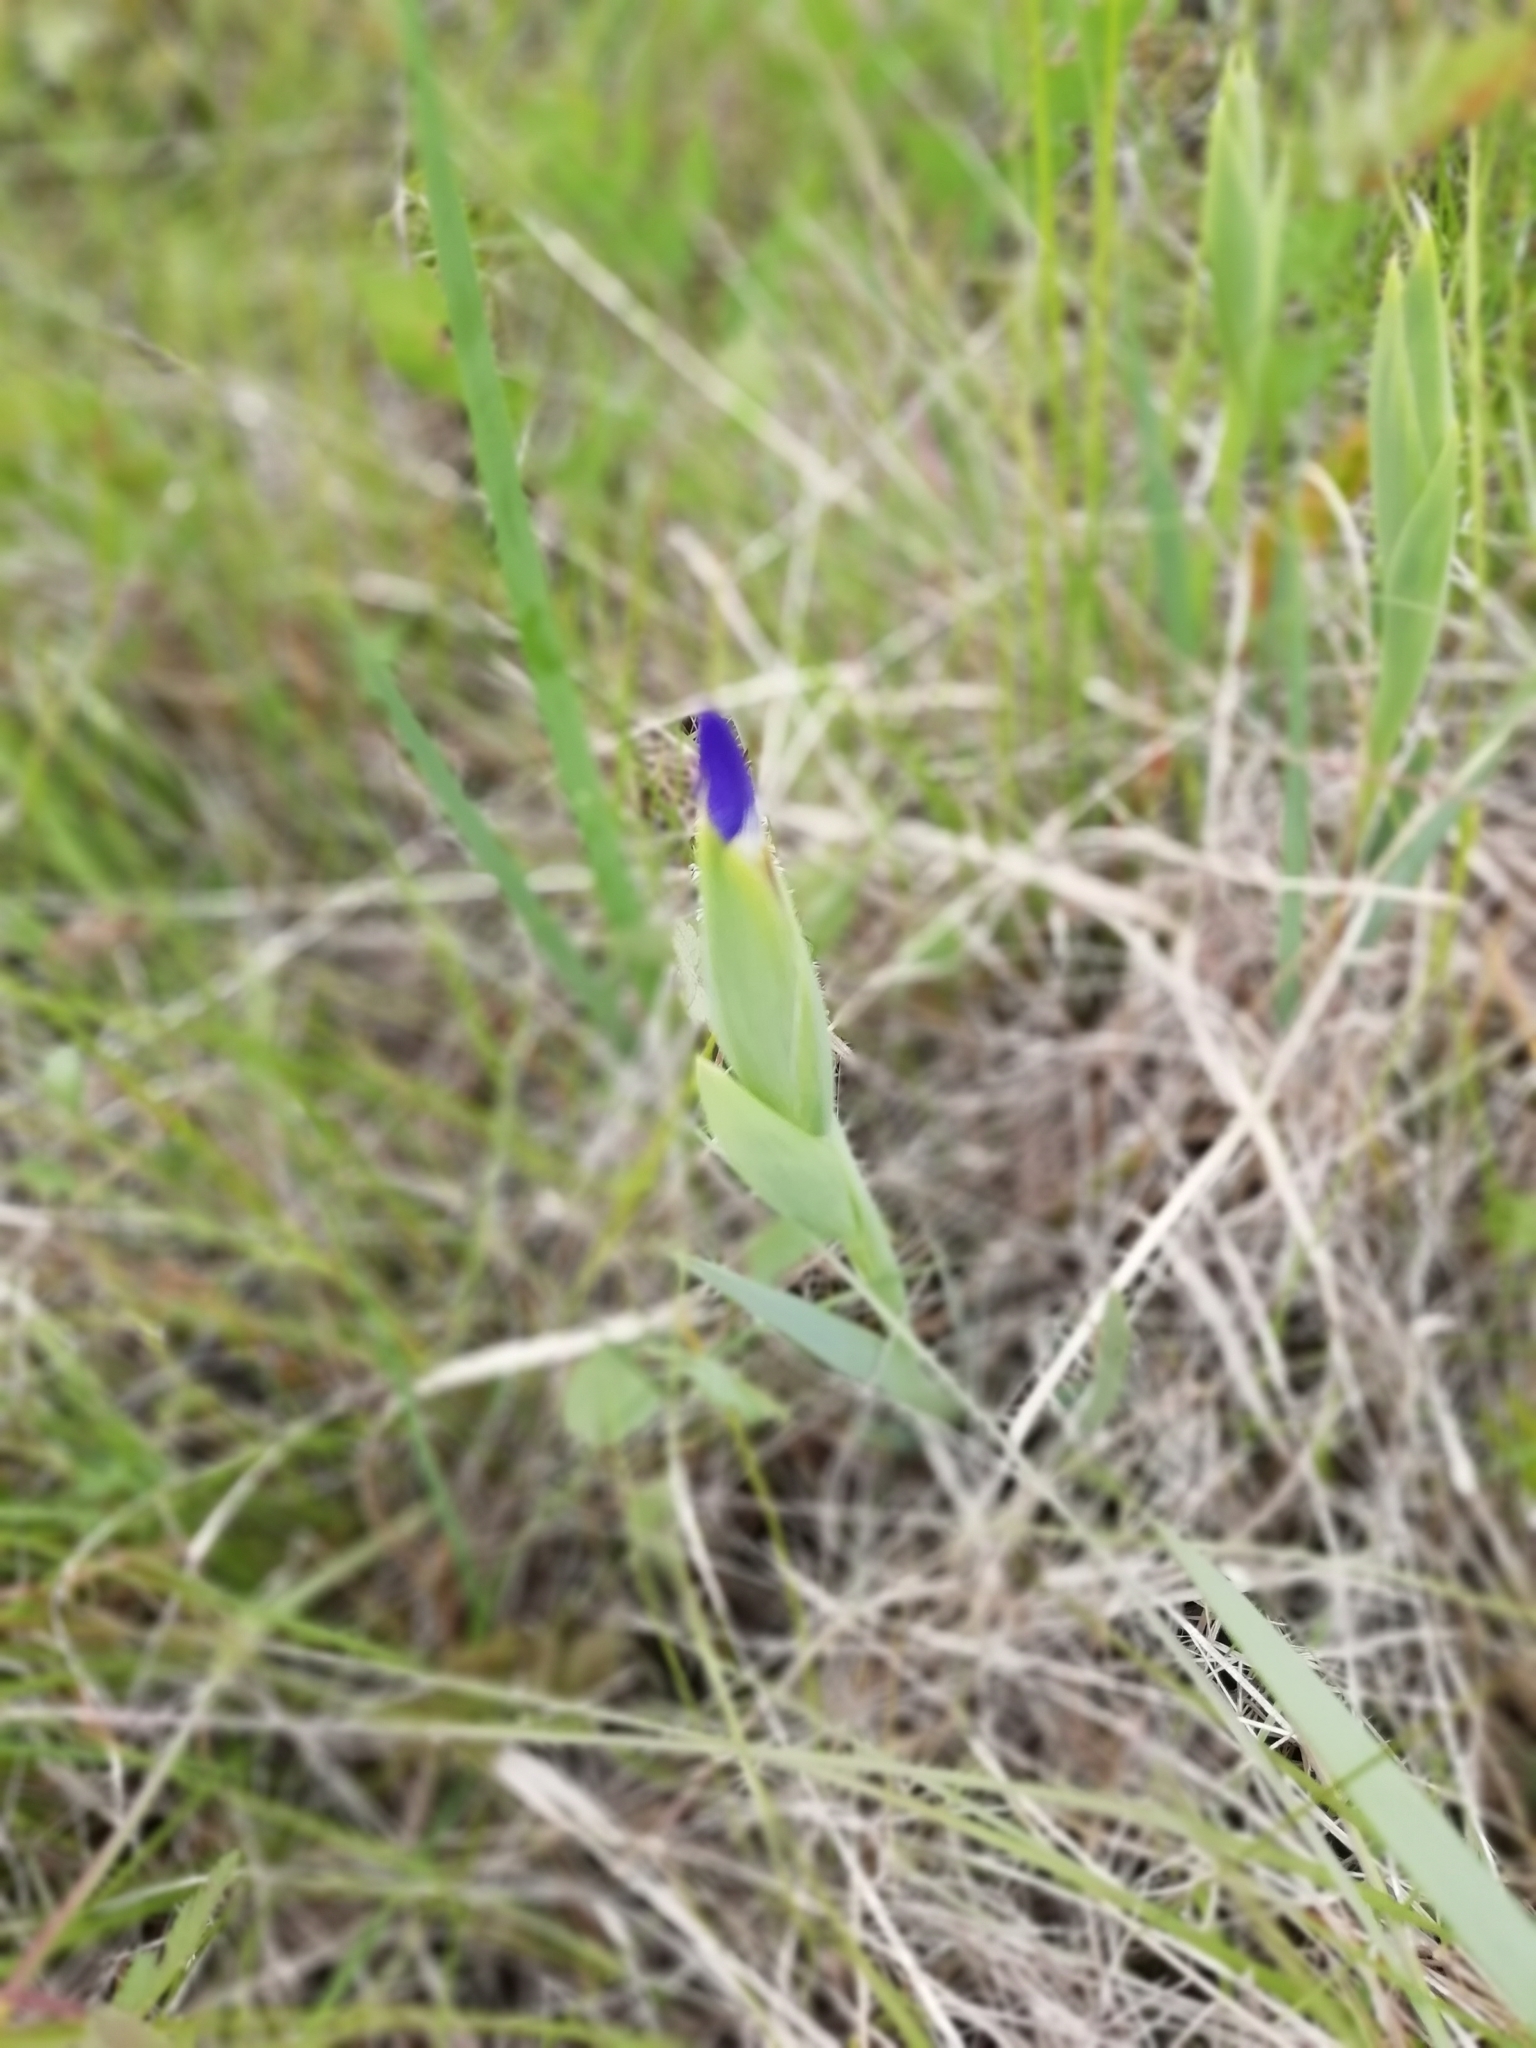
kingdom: Plantae
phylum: Tracheophyta
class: Liliopsida
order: Asparagales
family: Iridaceae
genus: Iris
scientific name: Iris reichenbachiana
